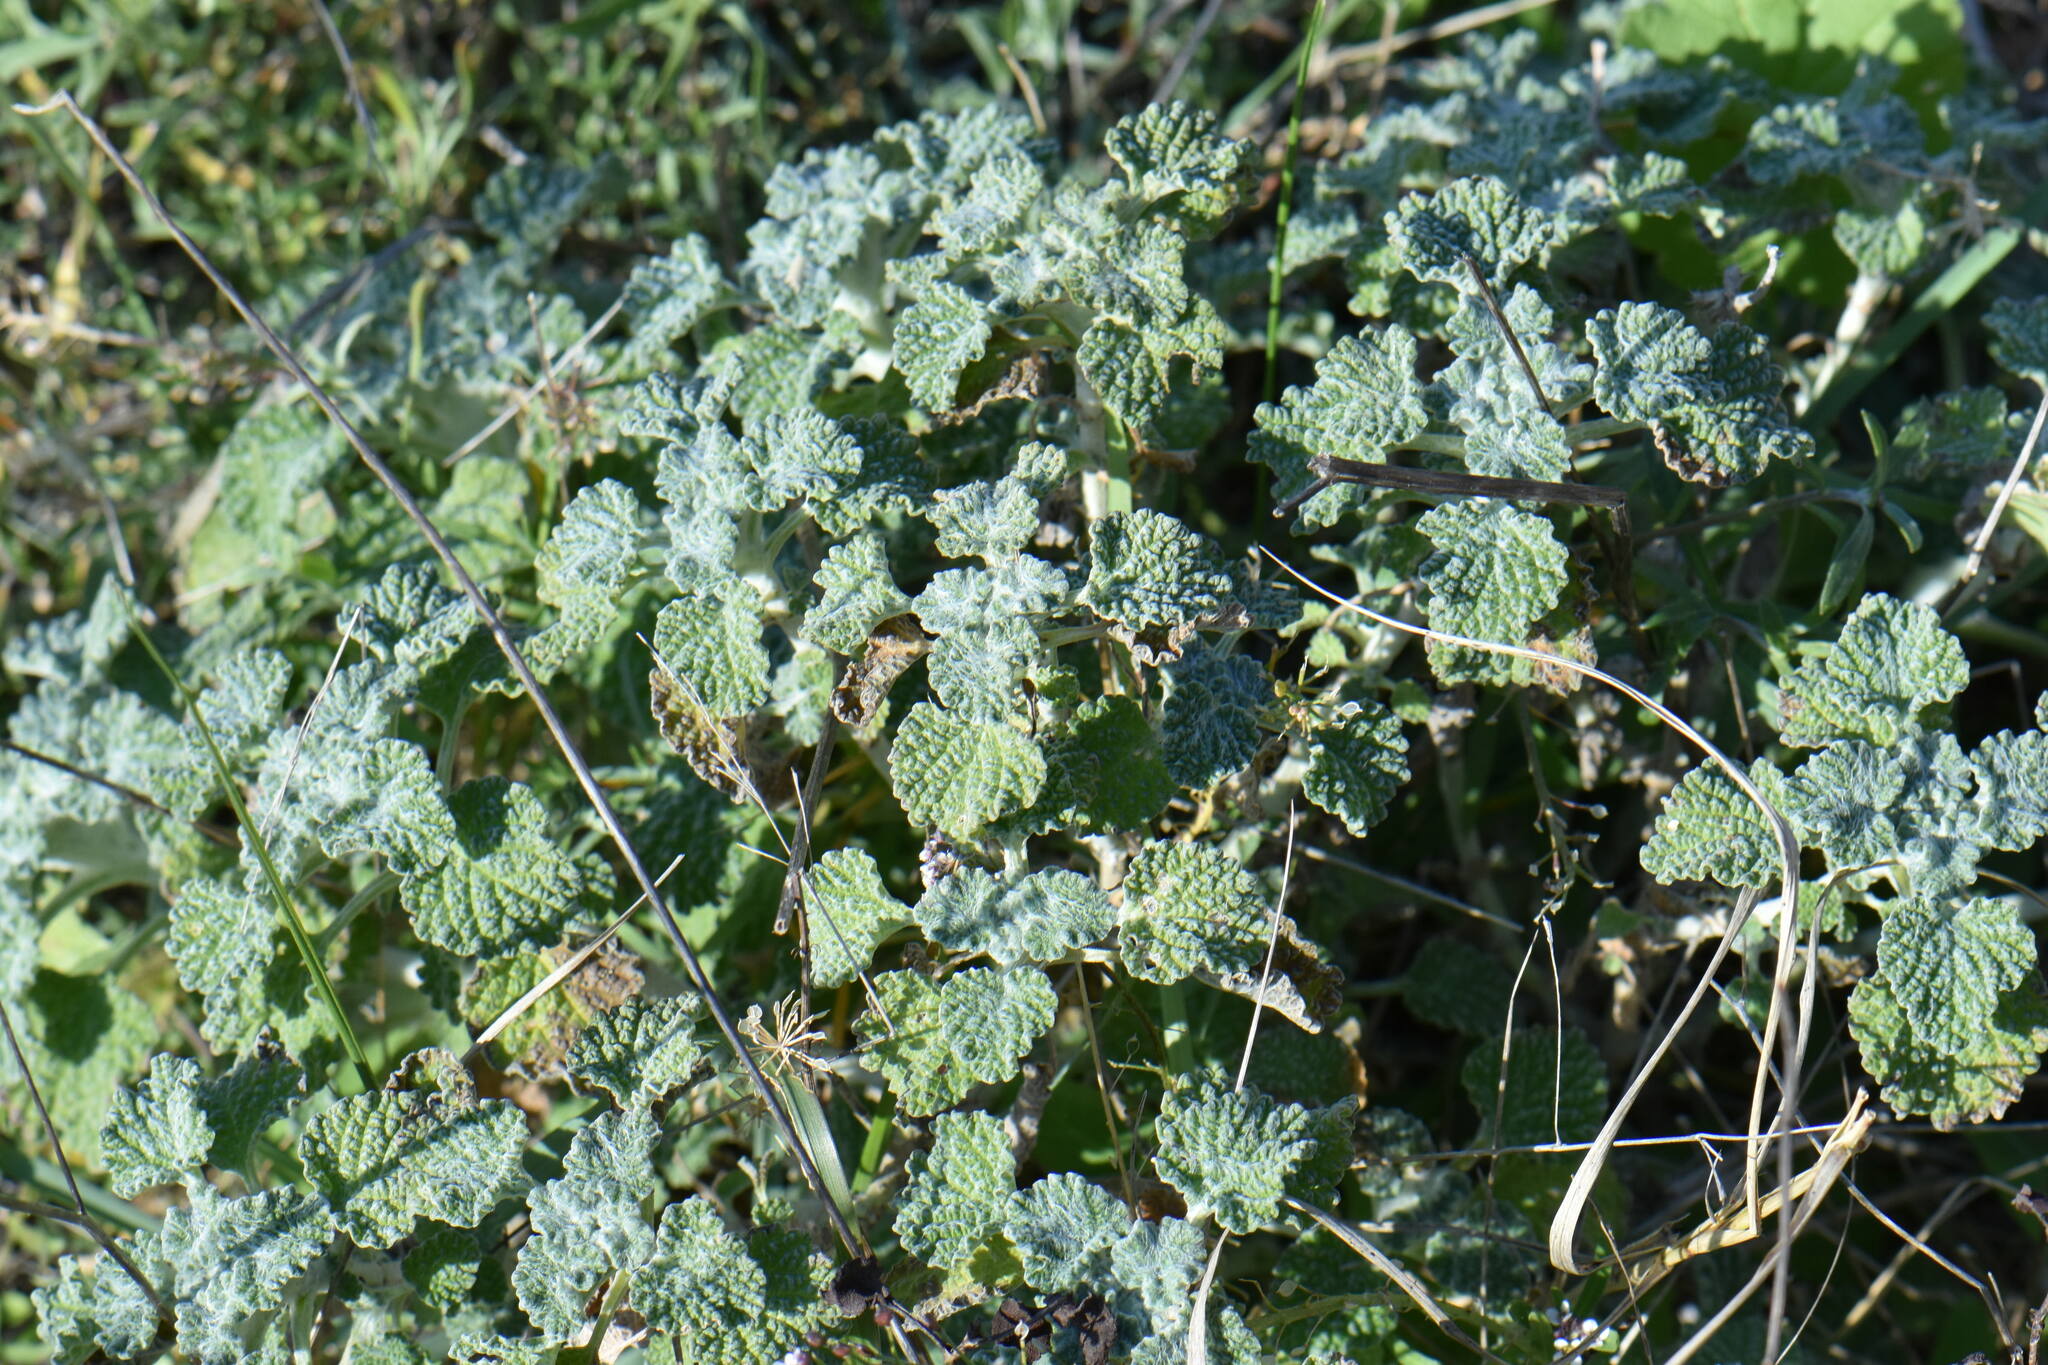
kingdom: Plantae
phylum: Tracheophyta
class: Magnoliopsida
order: Lamiales
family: Lamiaceae
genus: Marrubium
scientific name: Marrubium vulgare
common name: Horehound
